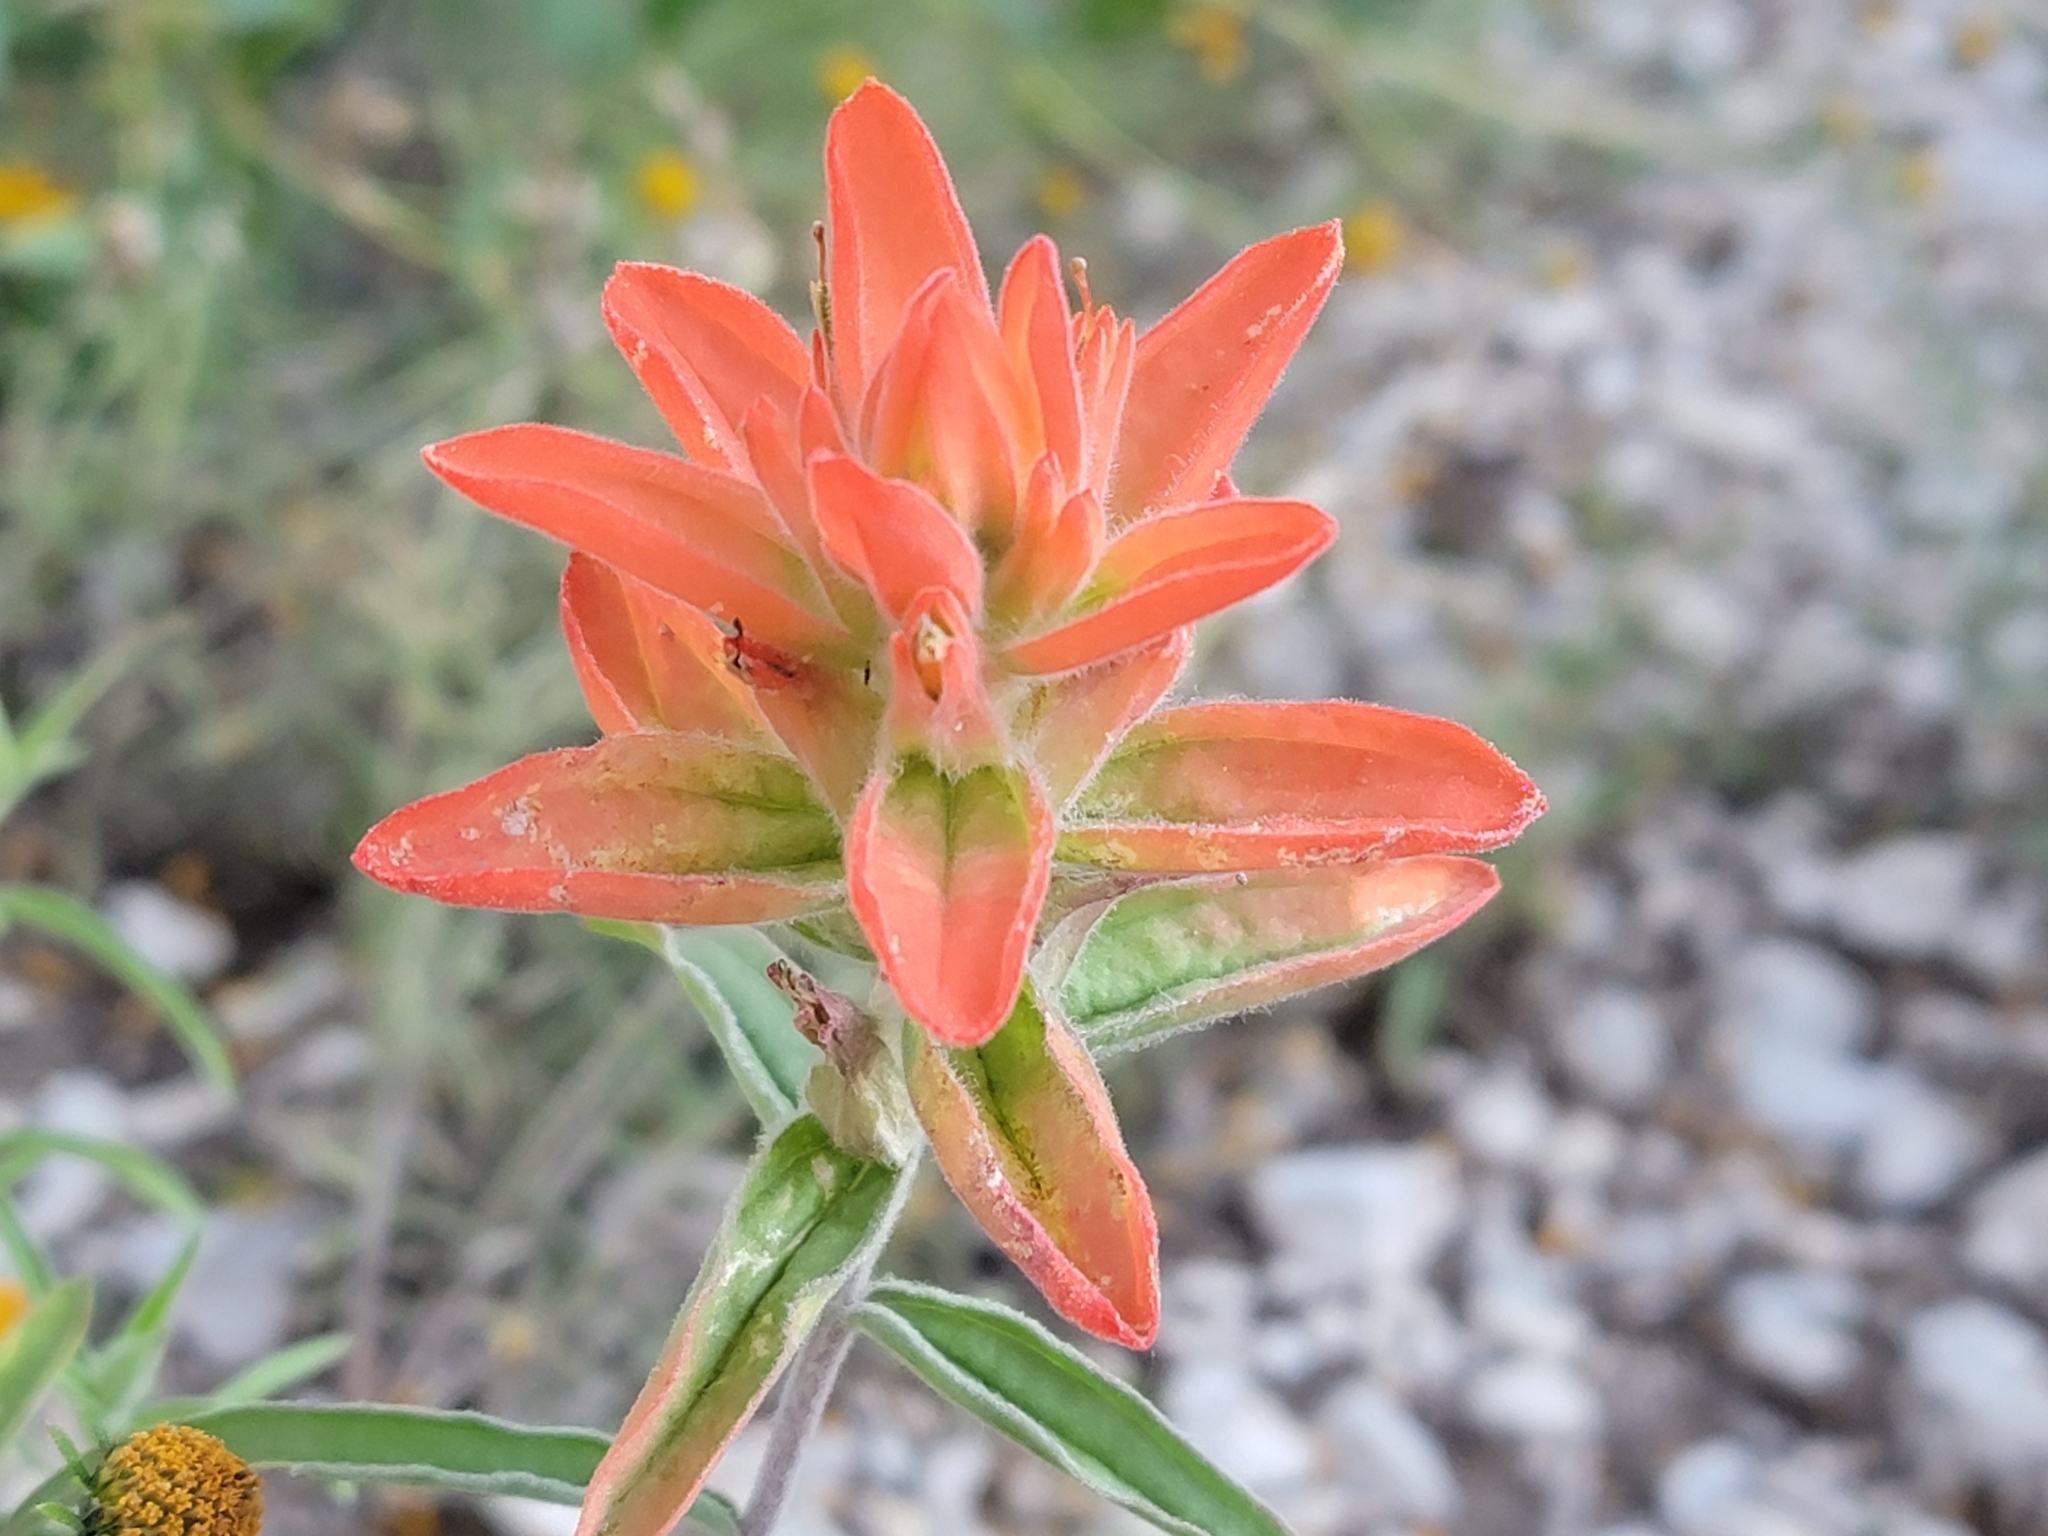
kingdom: Plantae
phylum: Tracheophyta
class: Magnoliopsida
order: Lamiales
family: Orobanchaceae
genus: Castilleja
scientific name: Castilleja integra
